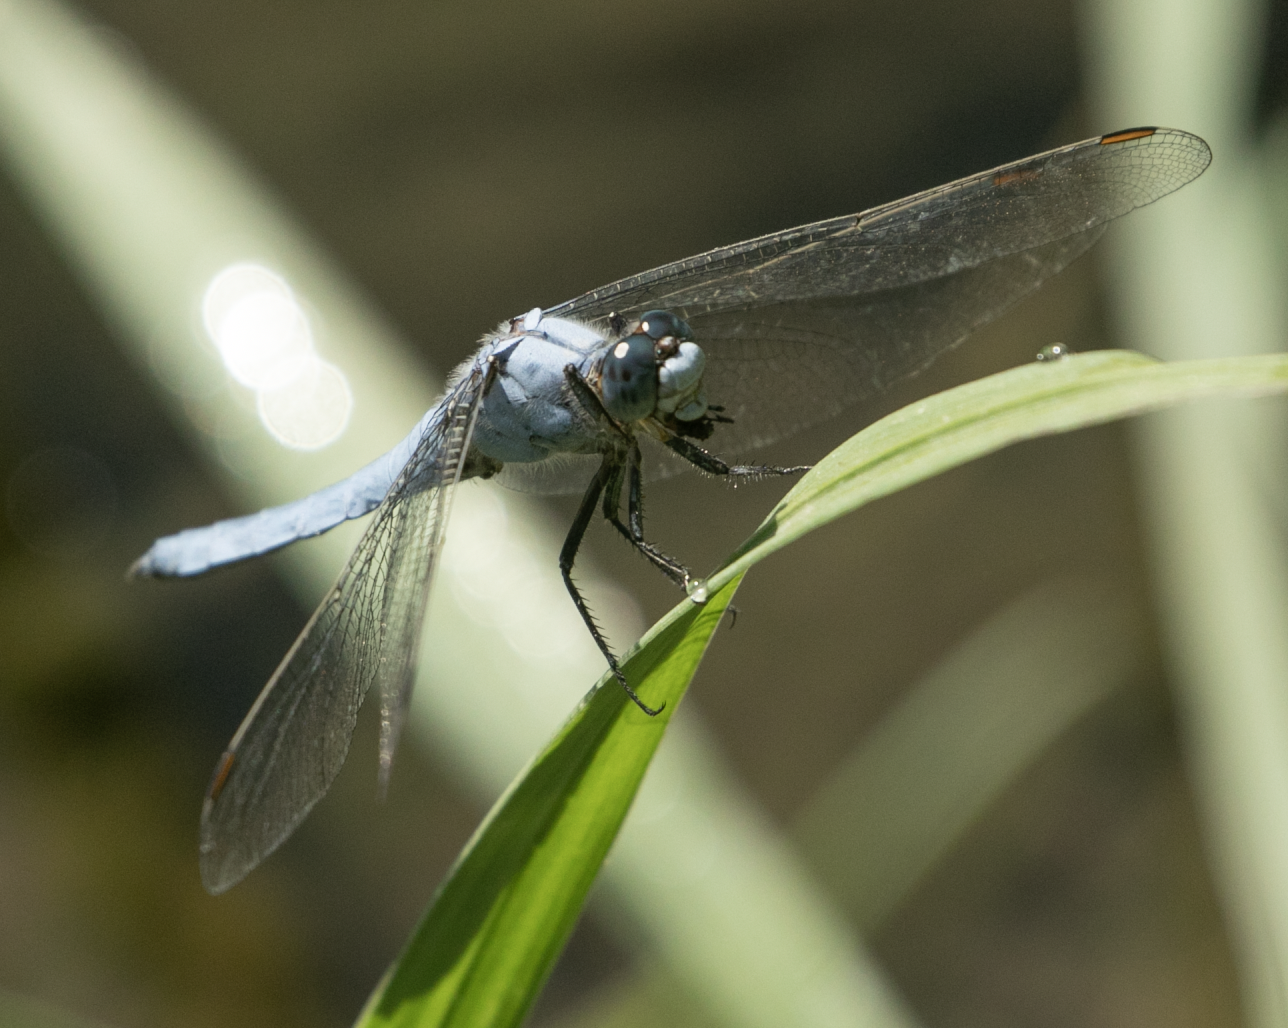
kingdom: Animalia
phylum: Arthropoda
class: Insecta
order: Odonata
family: Libellulidae
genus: Orthetrum
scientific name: Orthetrum brunneum
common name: Southern skimmer
